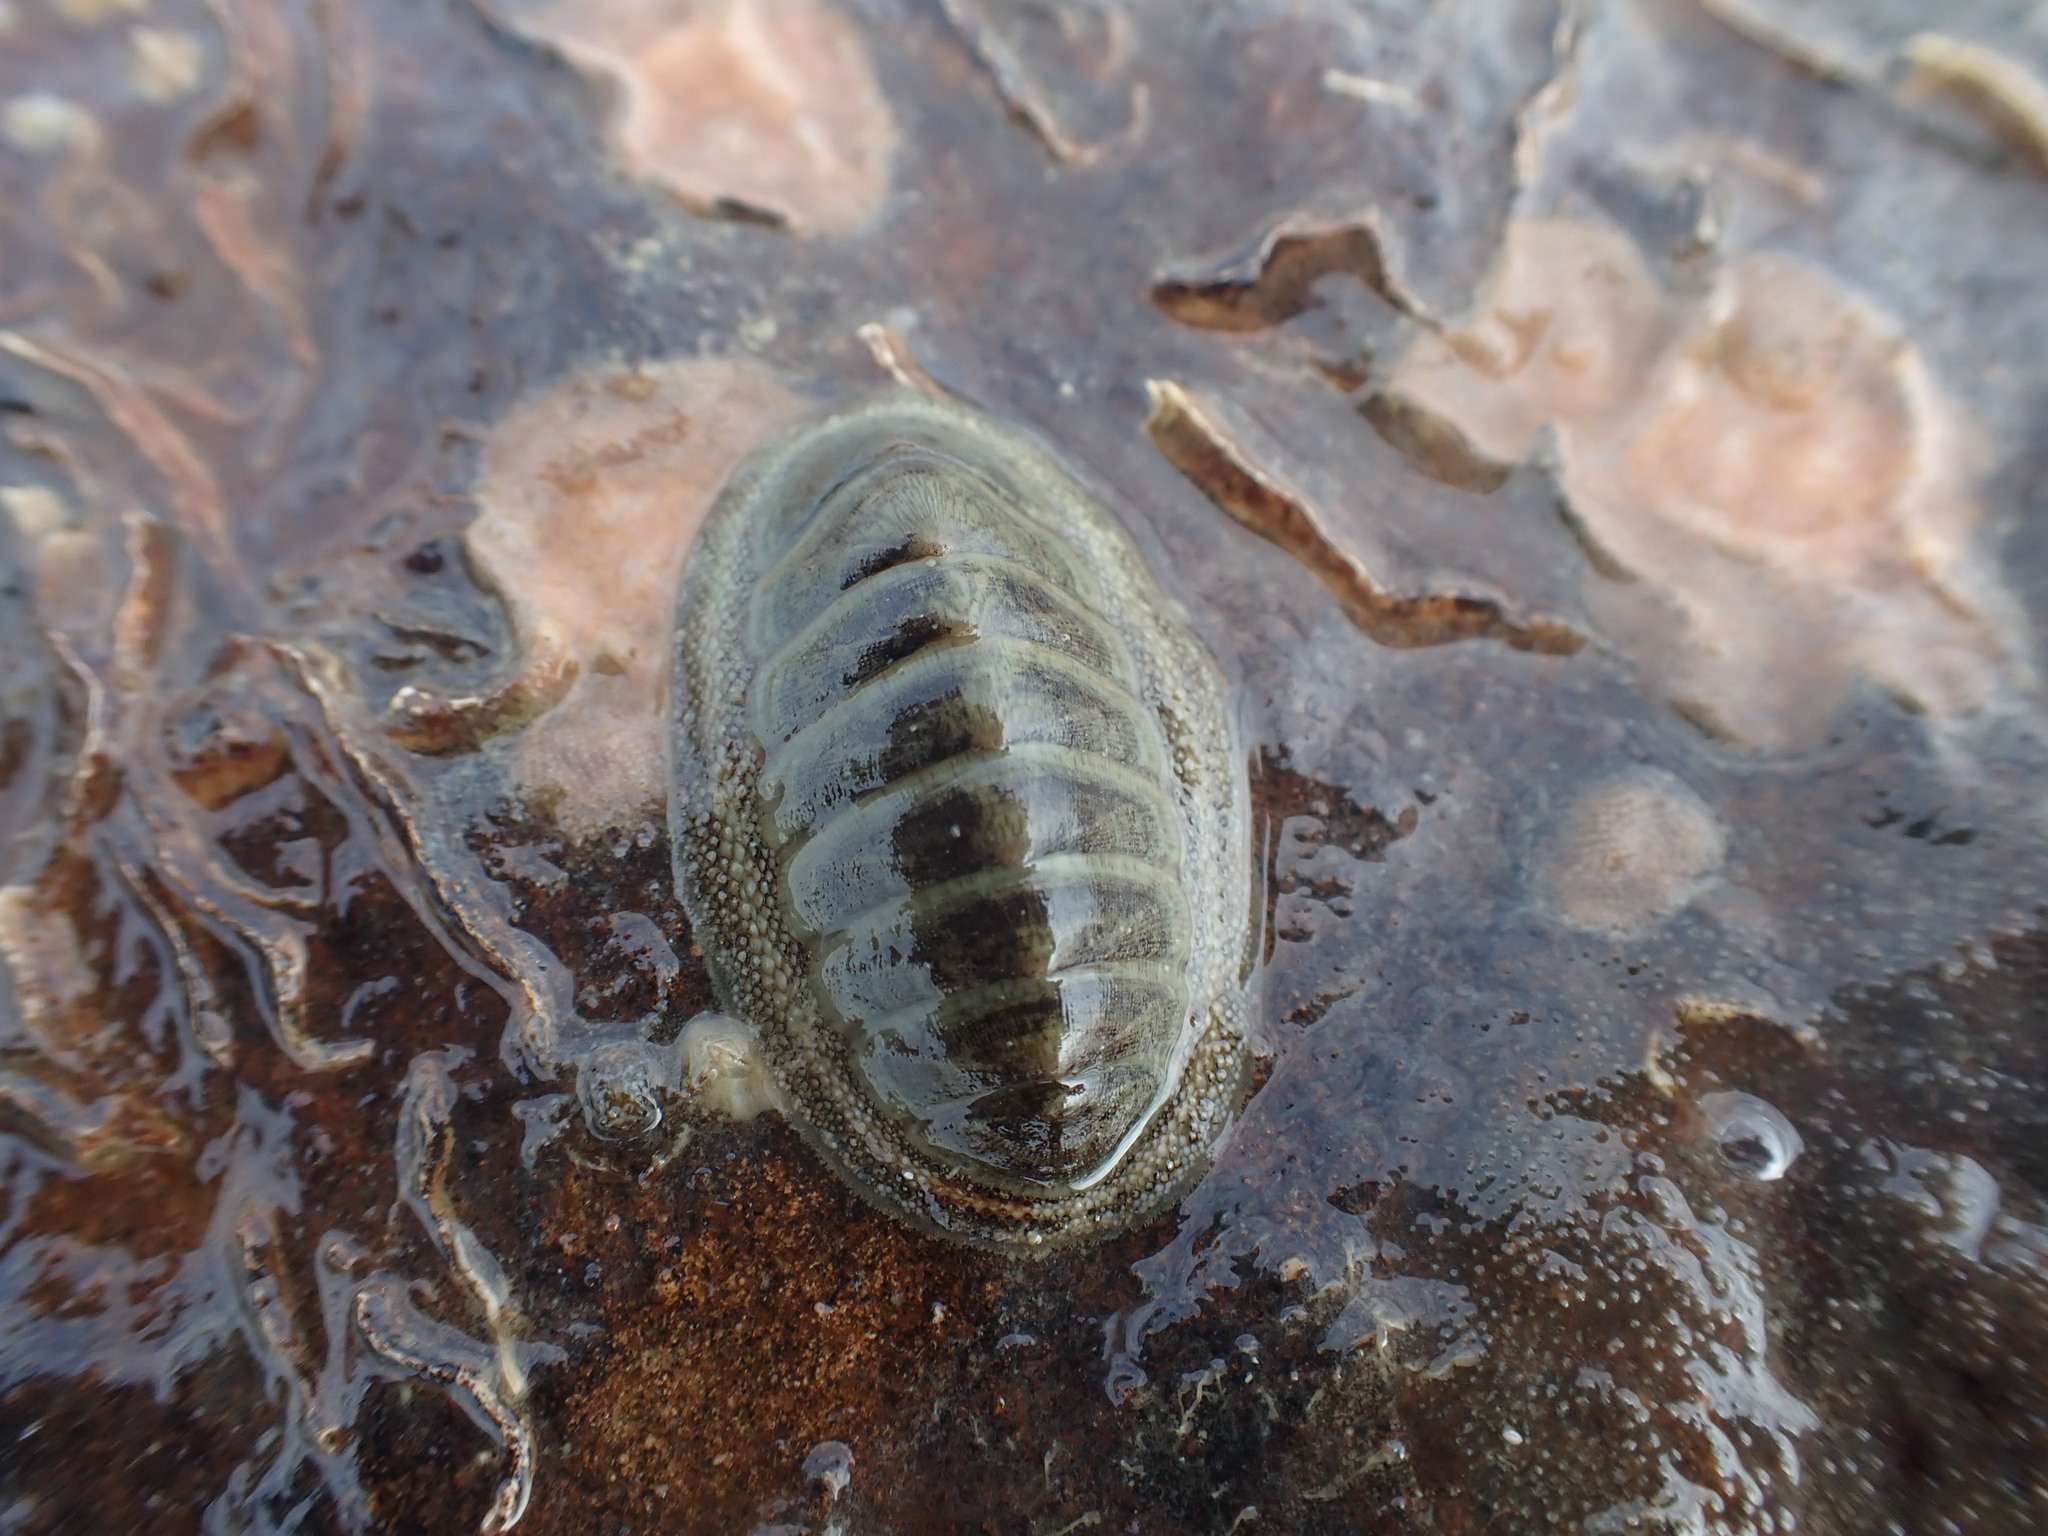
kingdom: Animalia
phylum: Mollusca
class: Polyplacophora
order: Chitonida
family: Chitonidae
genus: Chiton
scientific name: Chiton glaucus
